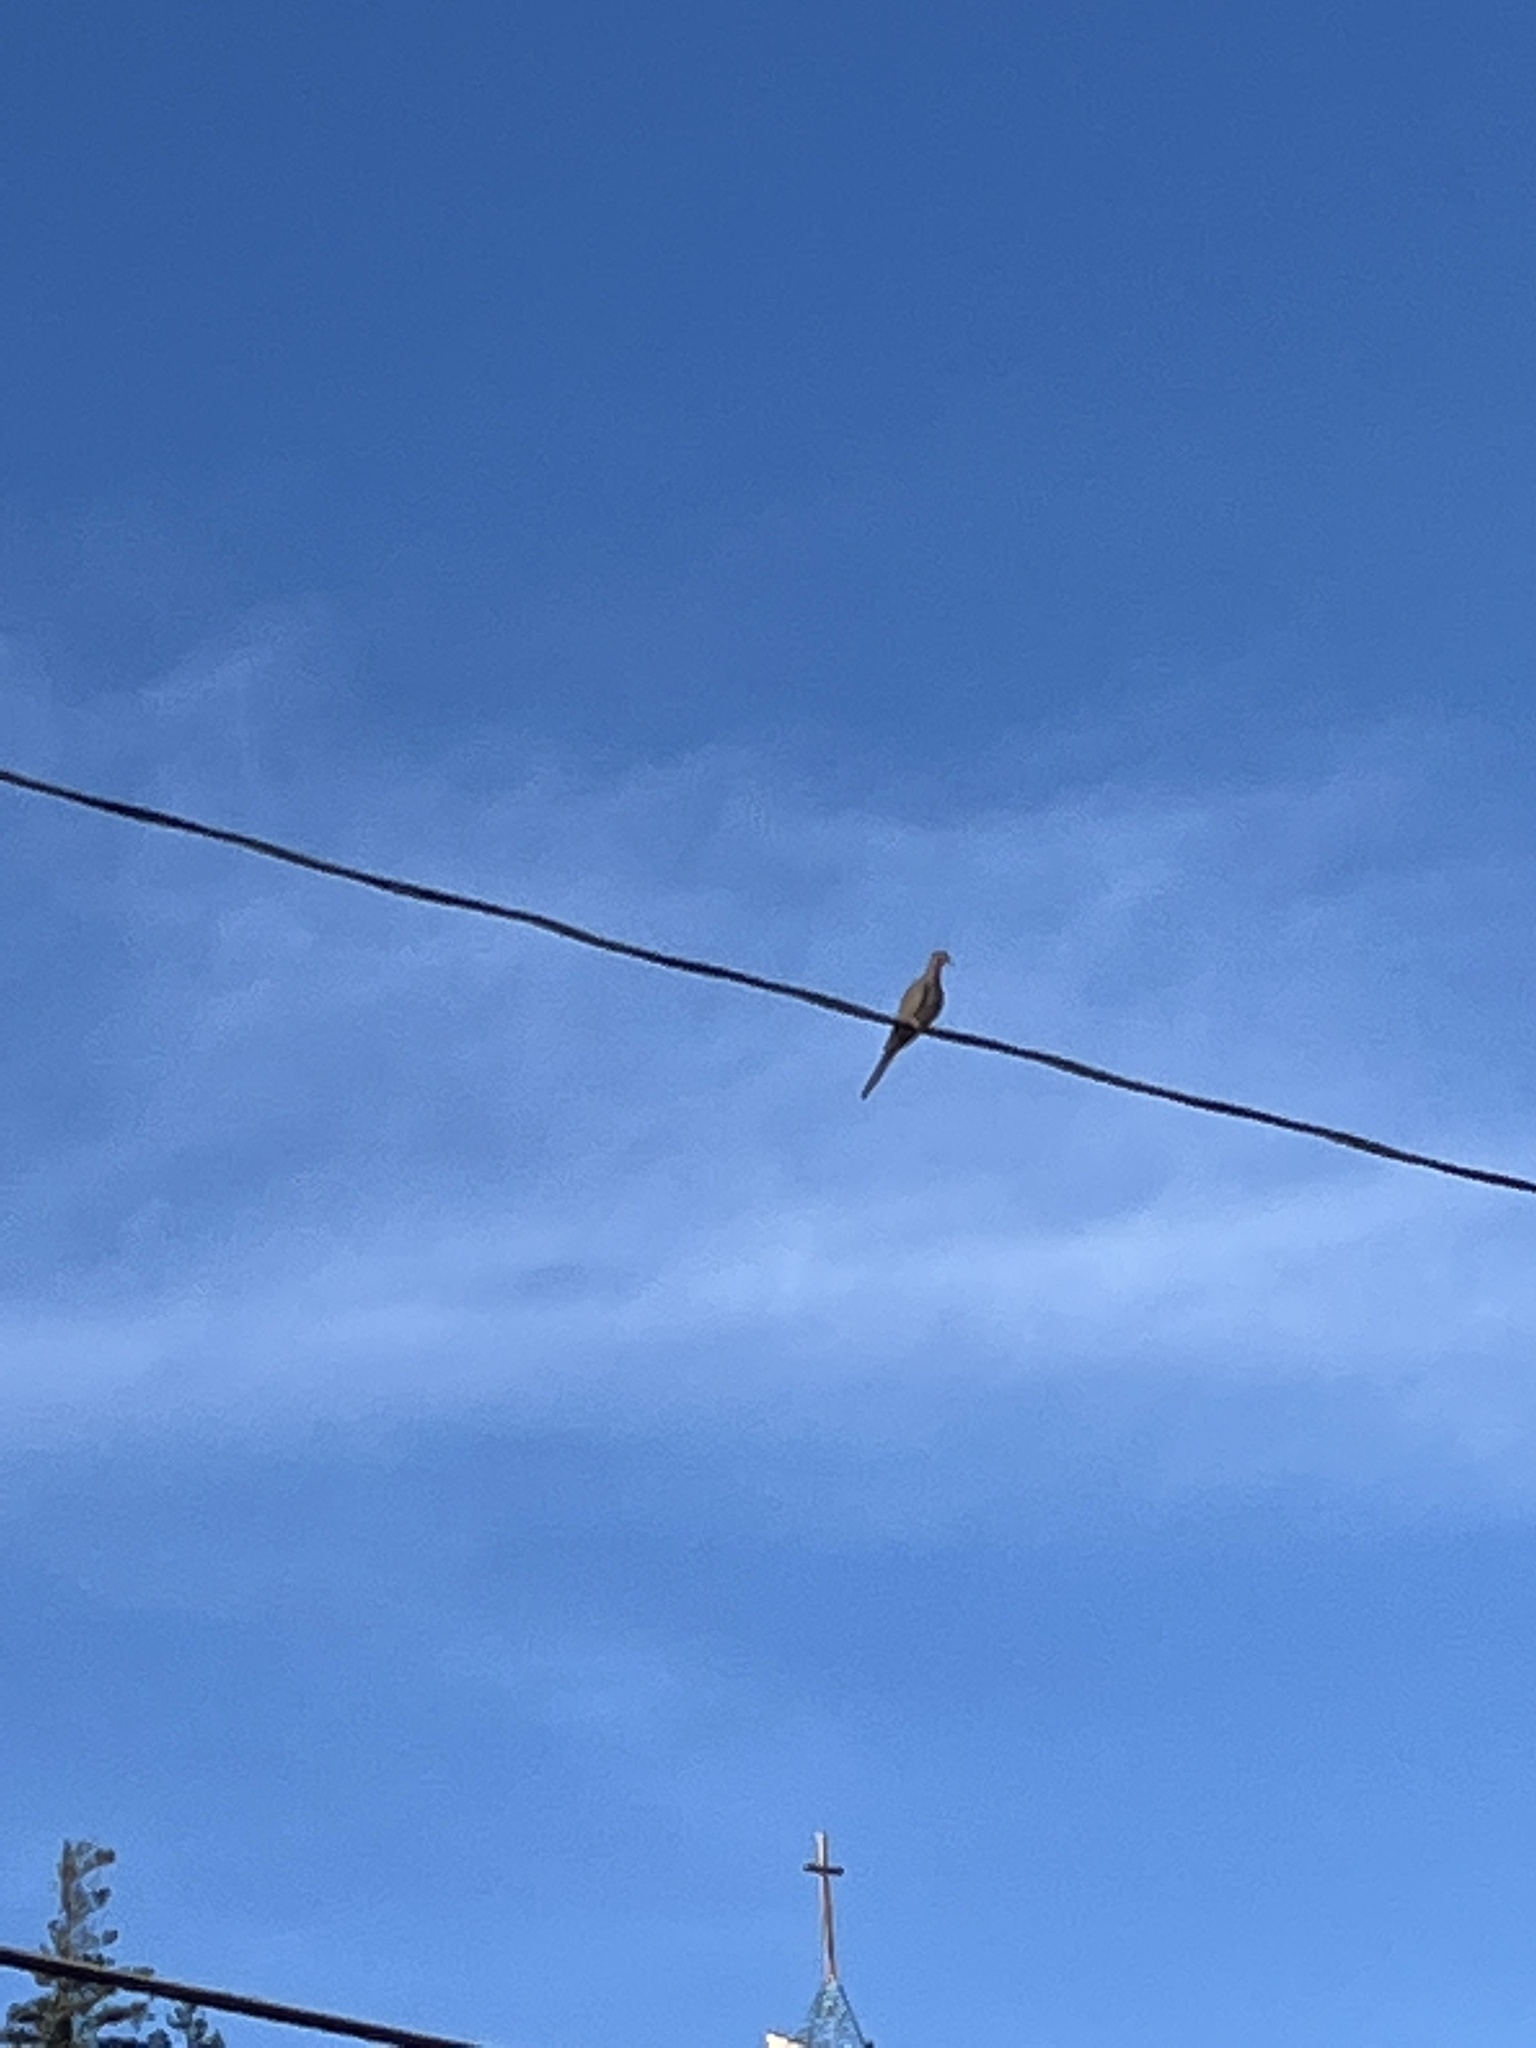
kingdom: Animalia
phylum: Chordata
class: Aves
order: Columbiformes
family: Columbidae
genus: Zenaida
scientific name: Zenaida macroura
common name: Mourning dove
